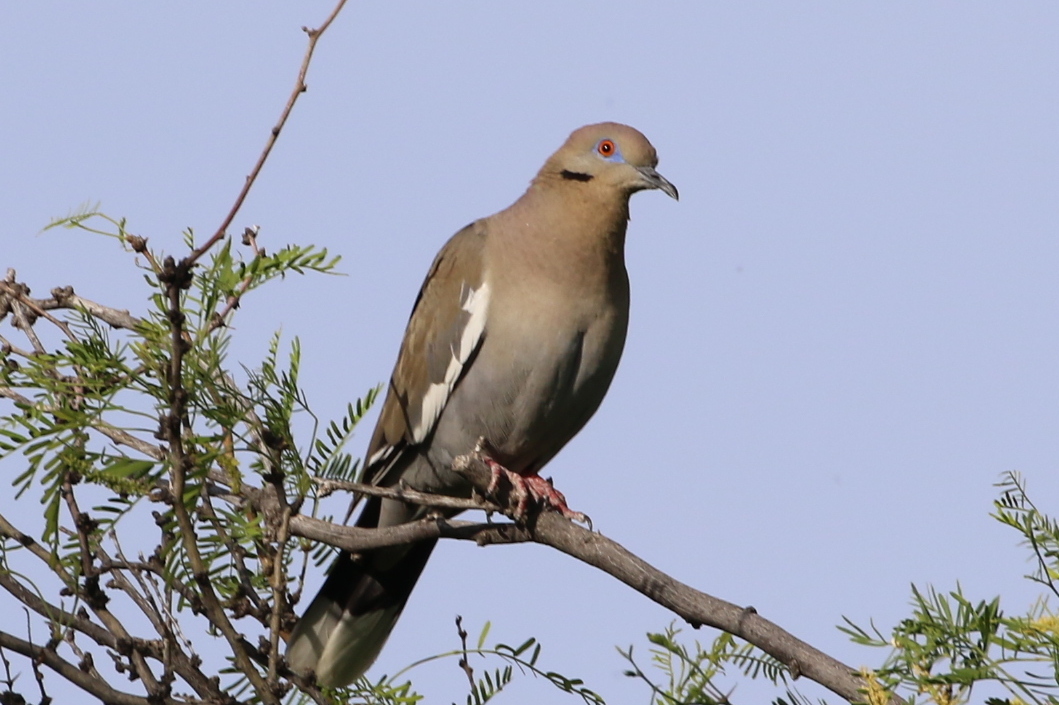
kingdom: Animalia
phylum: Chordata
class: Aves
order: Columbiformes
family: Columbidae
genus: Zenaida
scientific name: Zenaida asiatica
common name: White-winged dove
